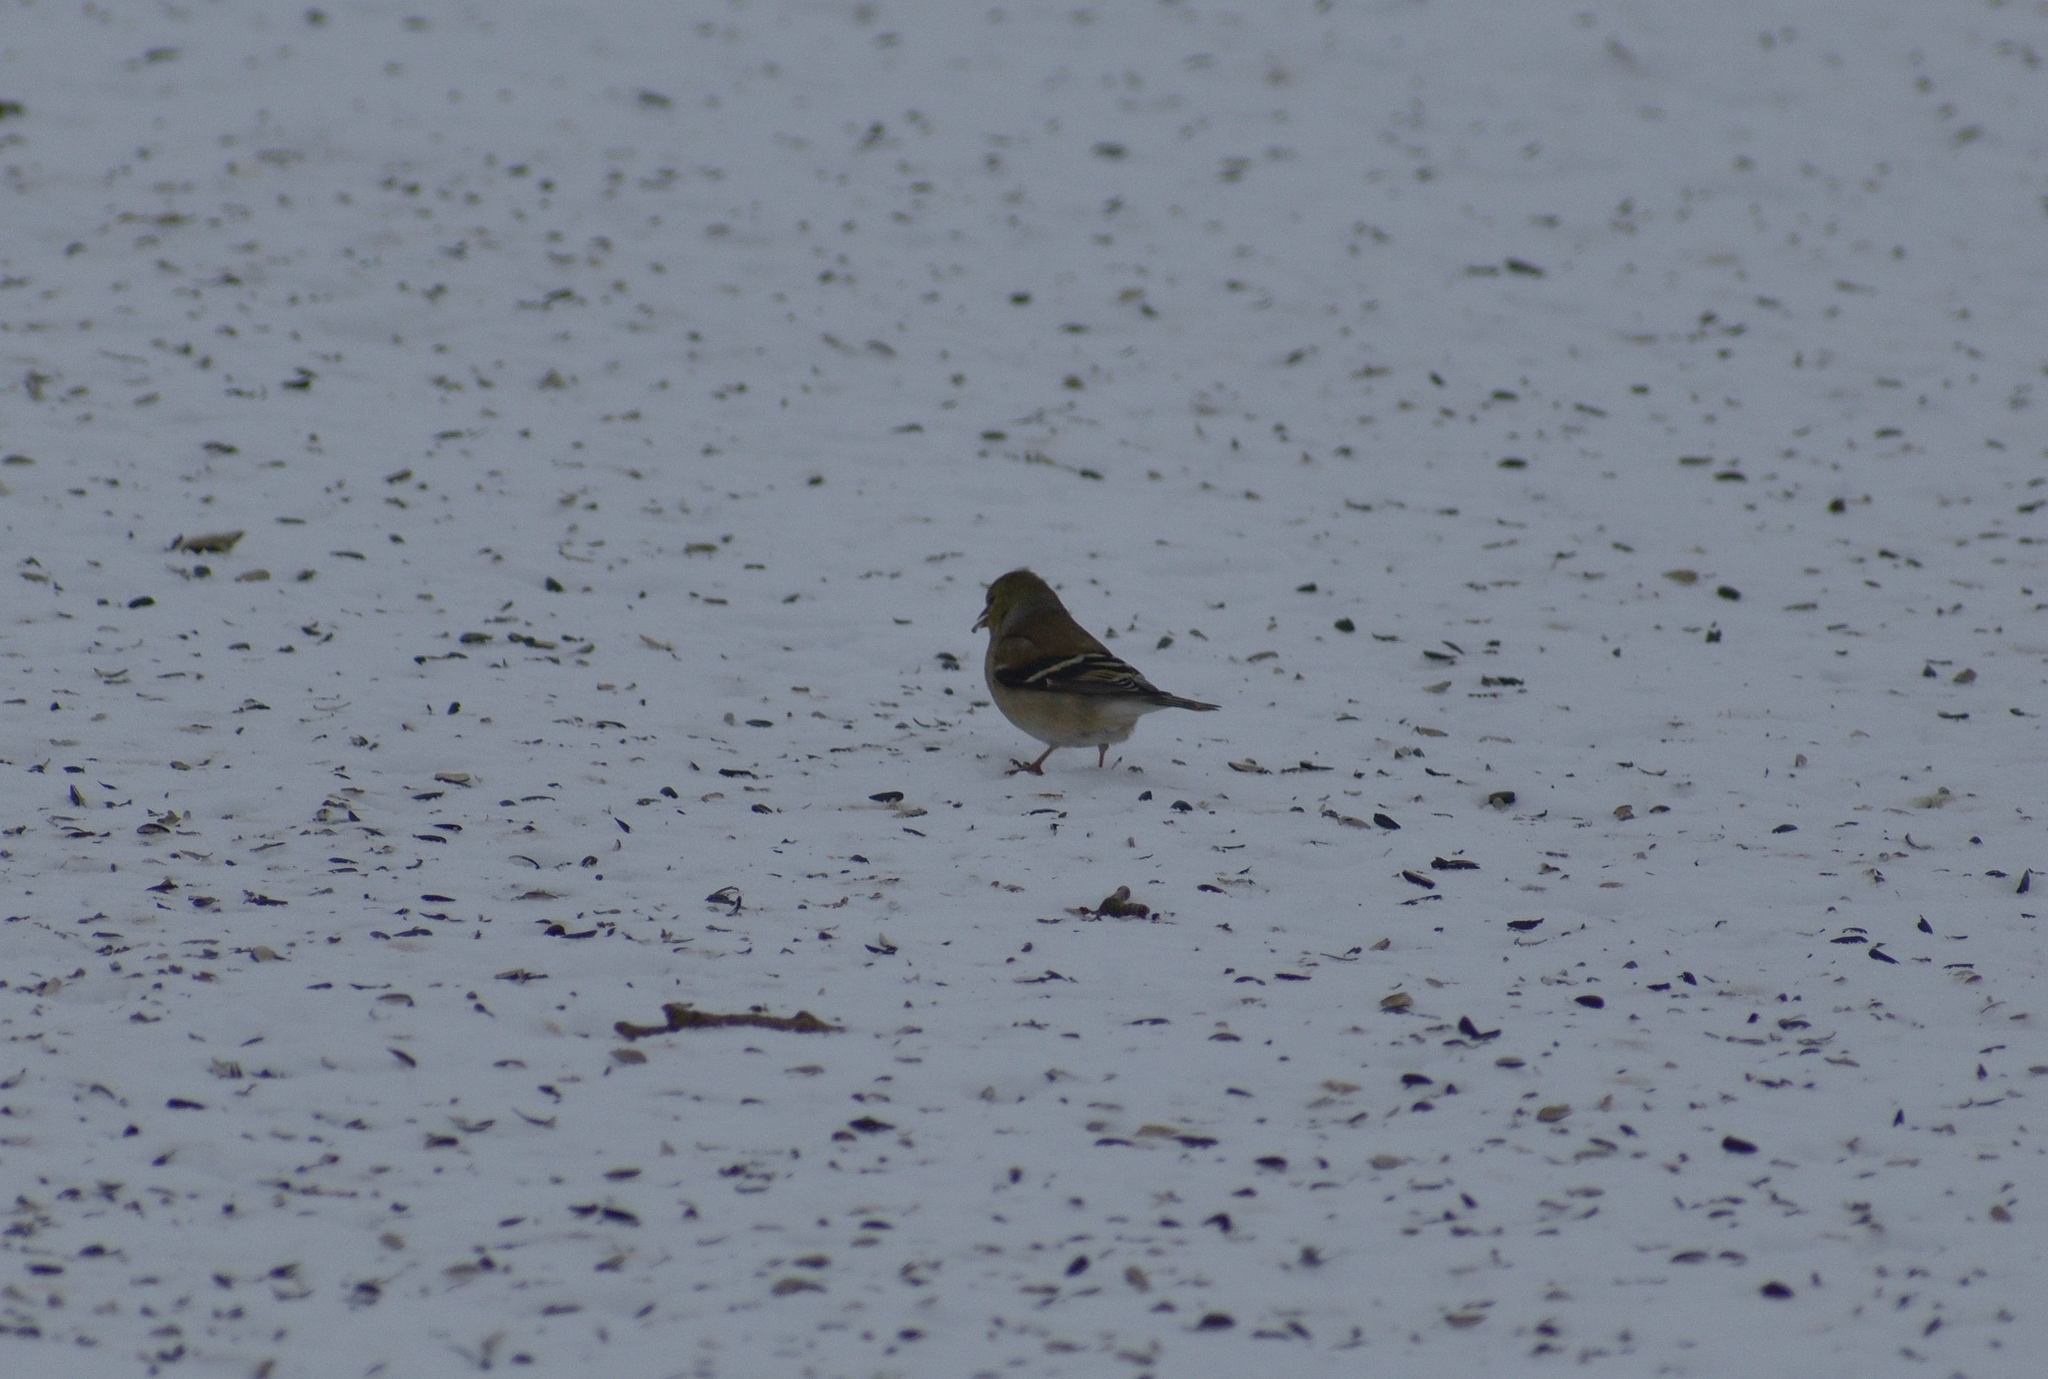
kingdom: Animalia
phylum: Chordata
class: Aves
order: Passeriformes
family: Fringillidae
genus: Spinus
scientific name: Spinus tristis
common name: American goldfinch
